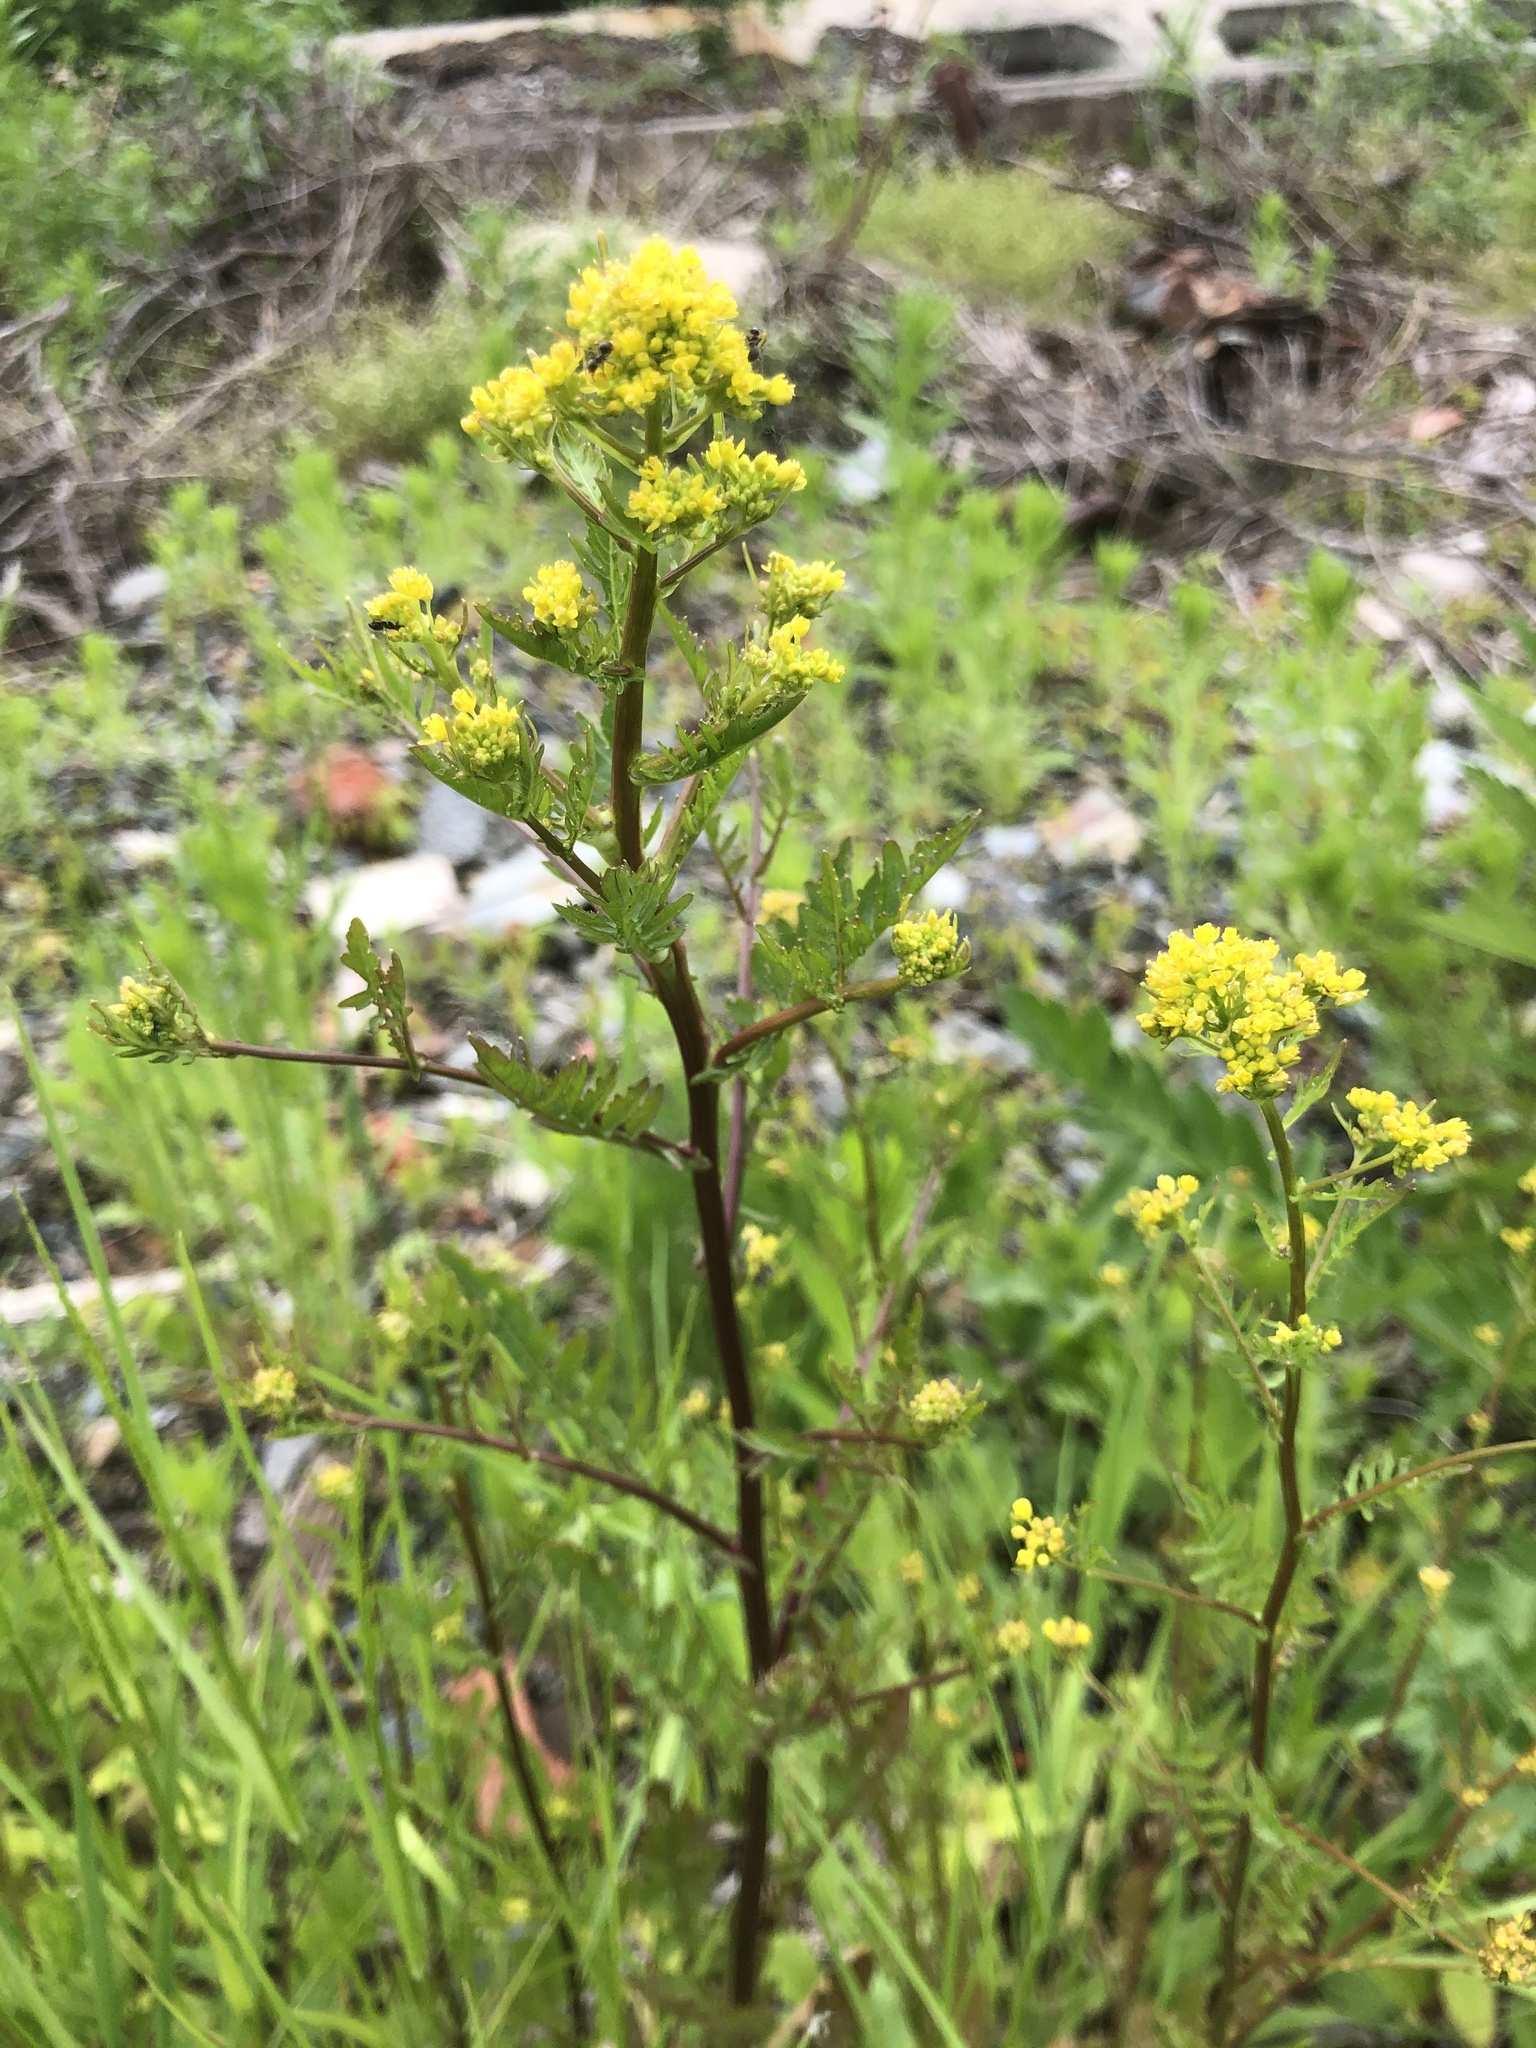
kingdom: Plantae
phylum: Tracheophyta
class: Magnoliopsida
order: Brassicales
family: Brassicaceae
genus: Rorippa
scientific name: Rorippa palustris
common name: Marsh yellow-cress
